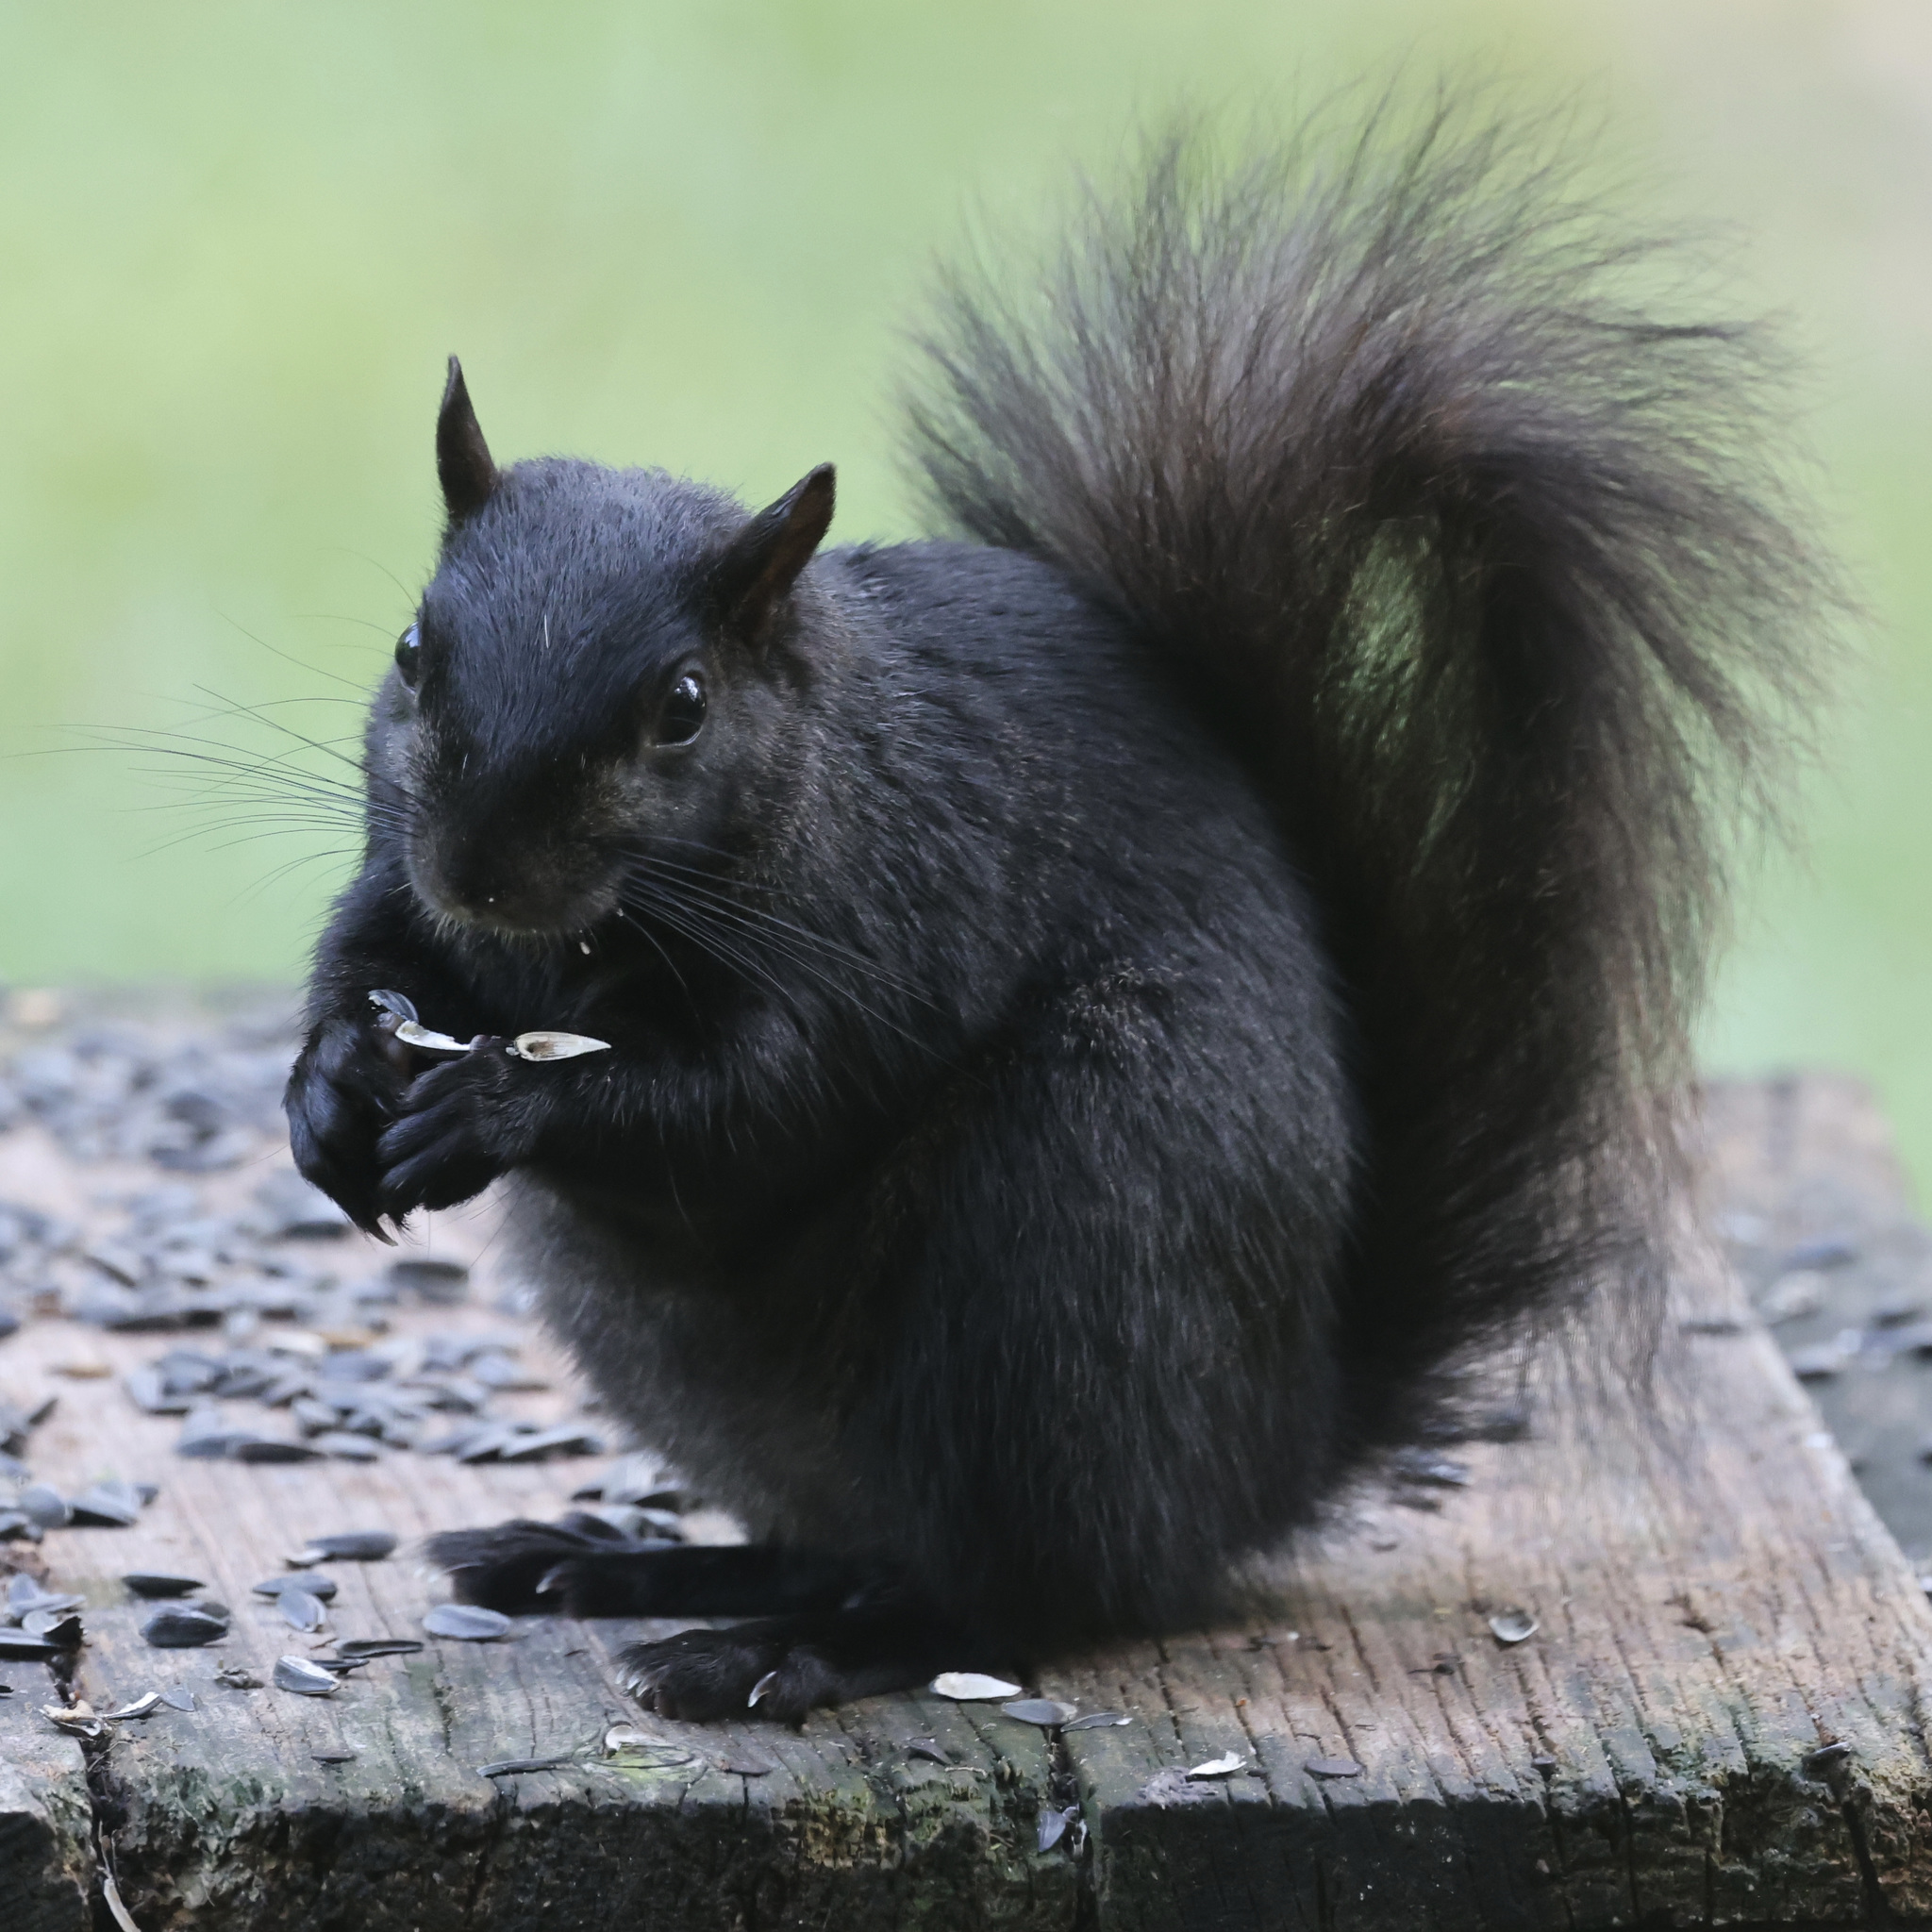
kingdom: Animalia
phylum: Chordata
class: Mammalia
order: Rodentia
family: Sciuridae
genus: Sciurus
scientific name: Sciurus carolinensis
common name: Eastern gray squirrel
